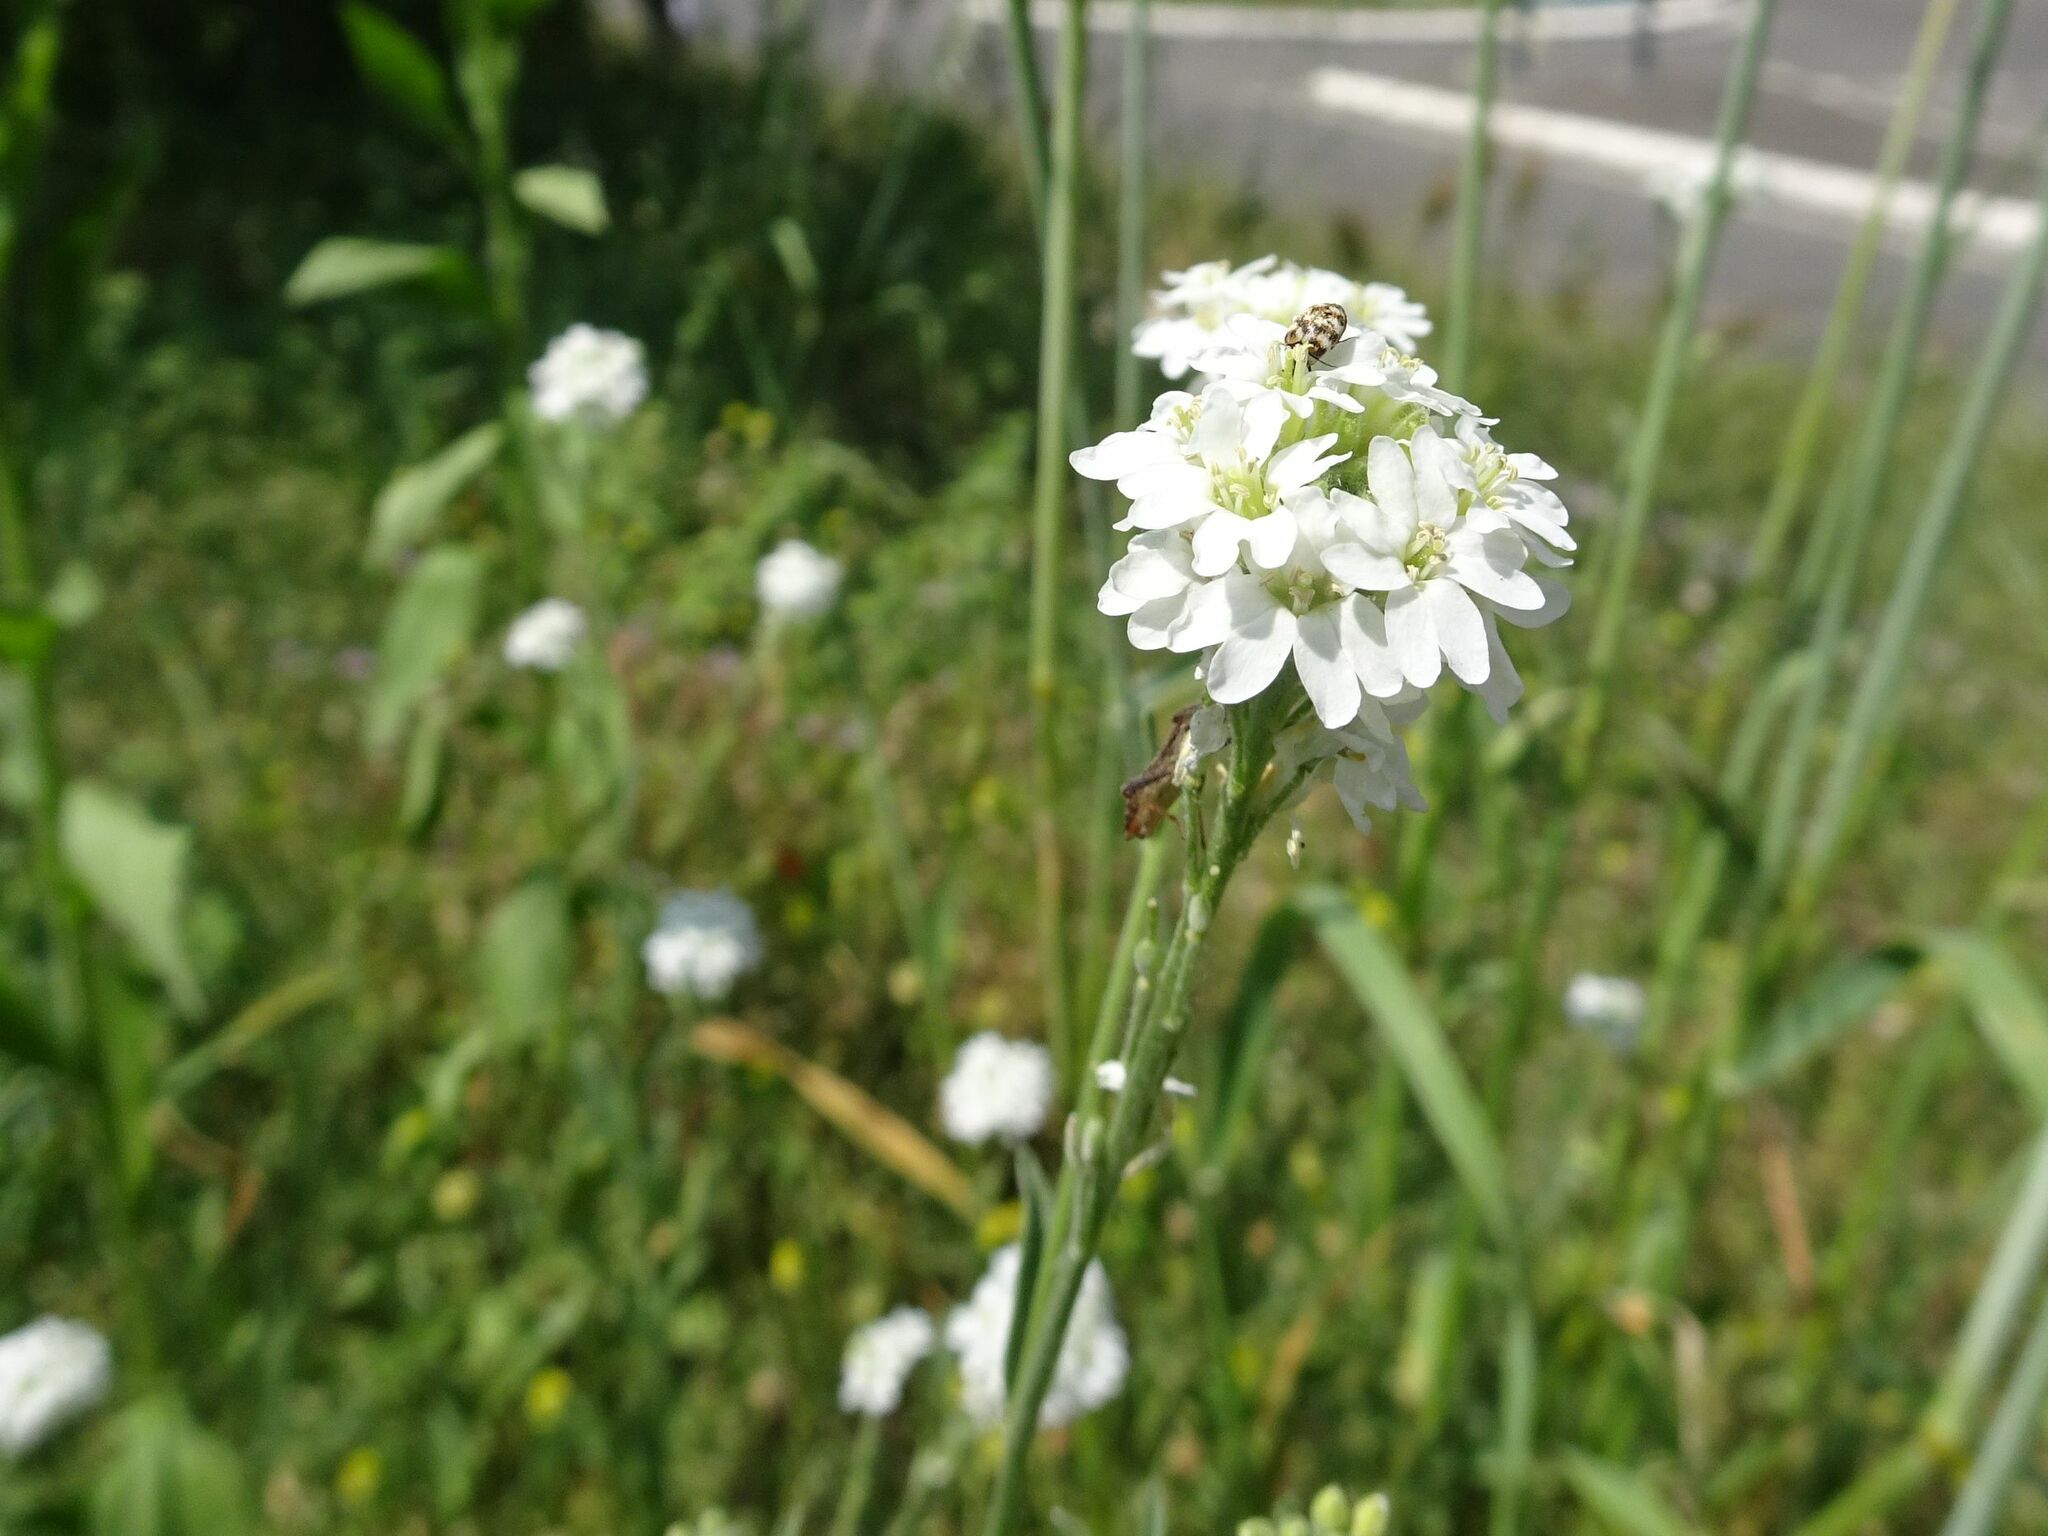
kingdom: Plantae
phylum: Tracheophyta
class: Magnoliopsida
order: Brassicales
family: Brassicaceae
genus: Berteroa
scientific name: Berteroa incana
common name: Hoary alison
